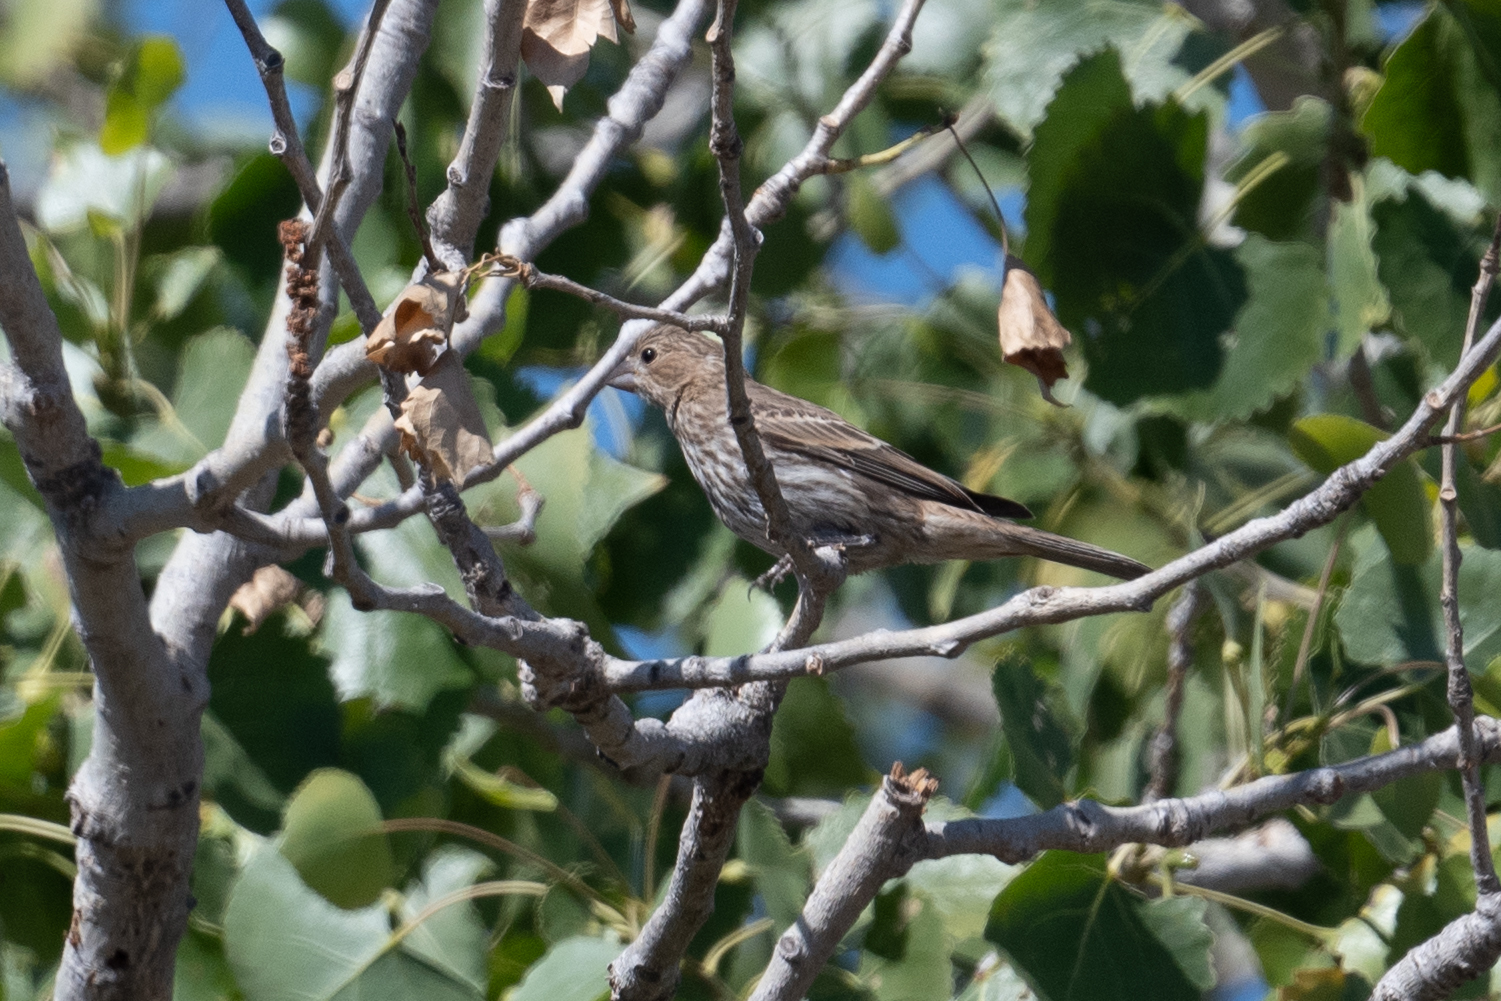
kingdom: Animalia
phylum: Chordata
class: Aves
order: Passeriformes
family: Fringillidae
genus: Haemorhous
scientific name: Haemorhous mexicanus
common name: House finch
